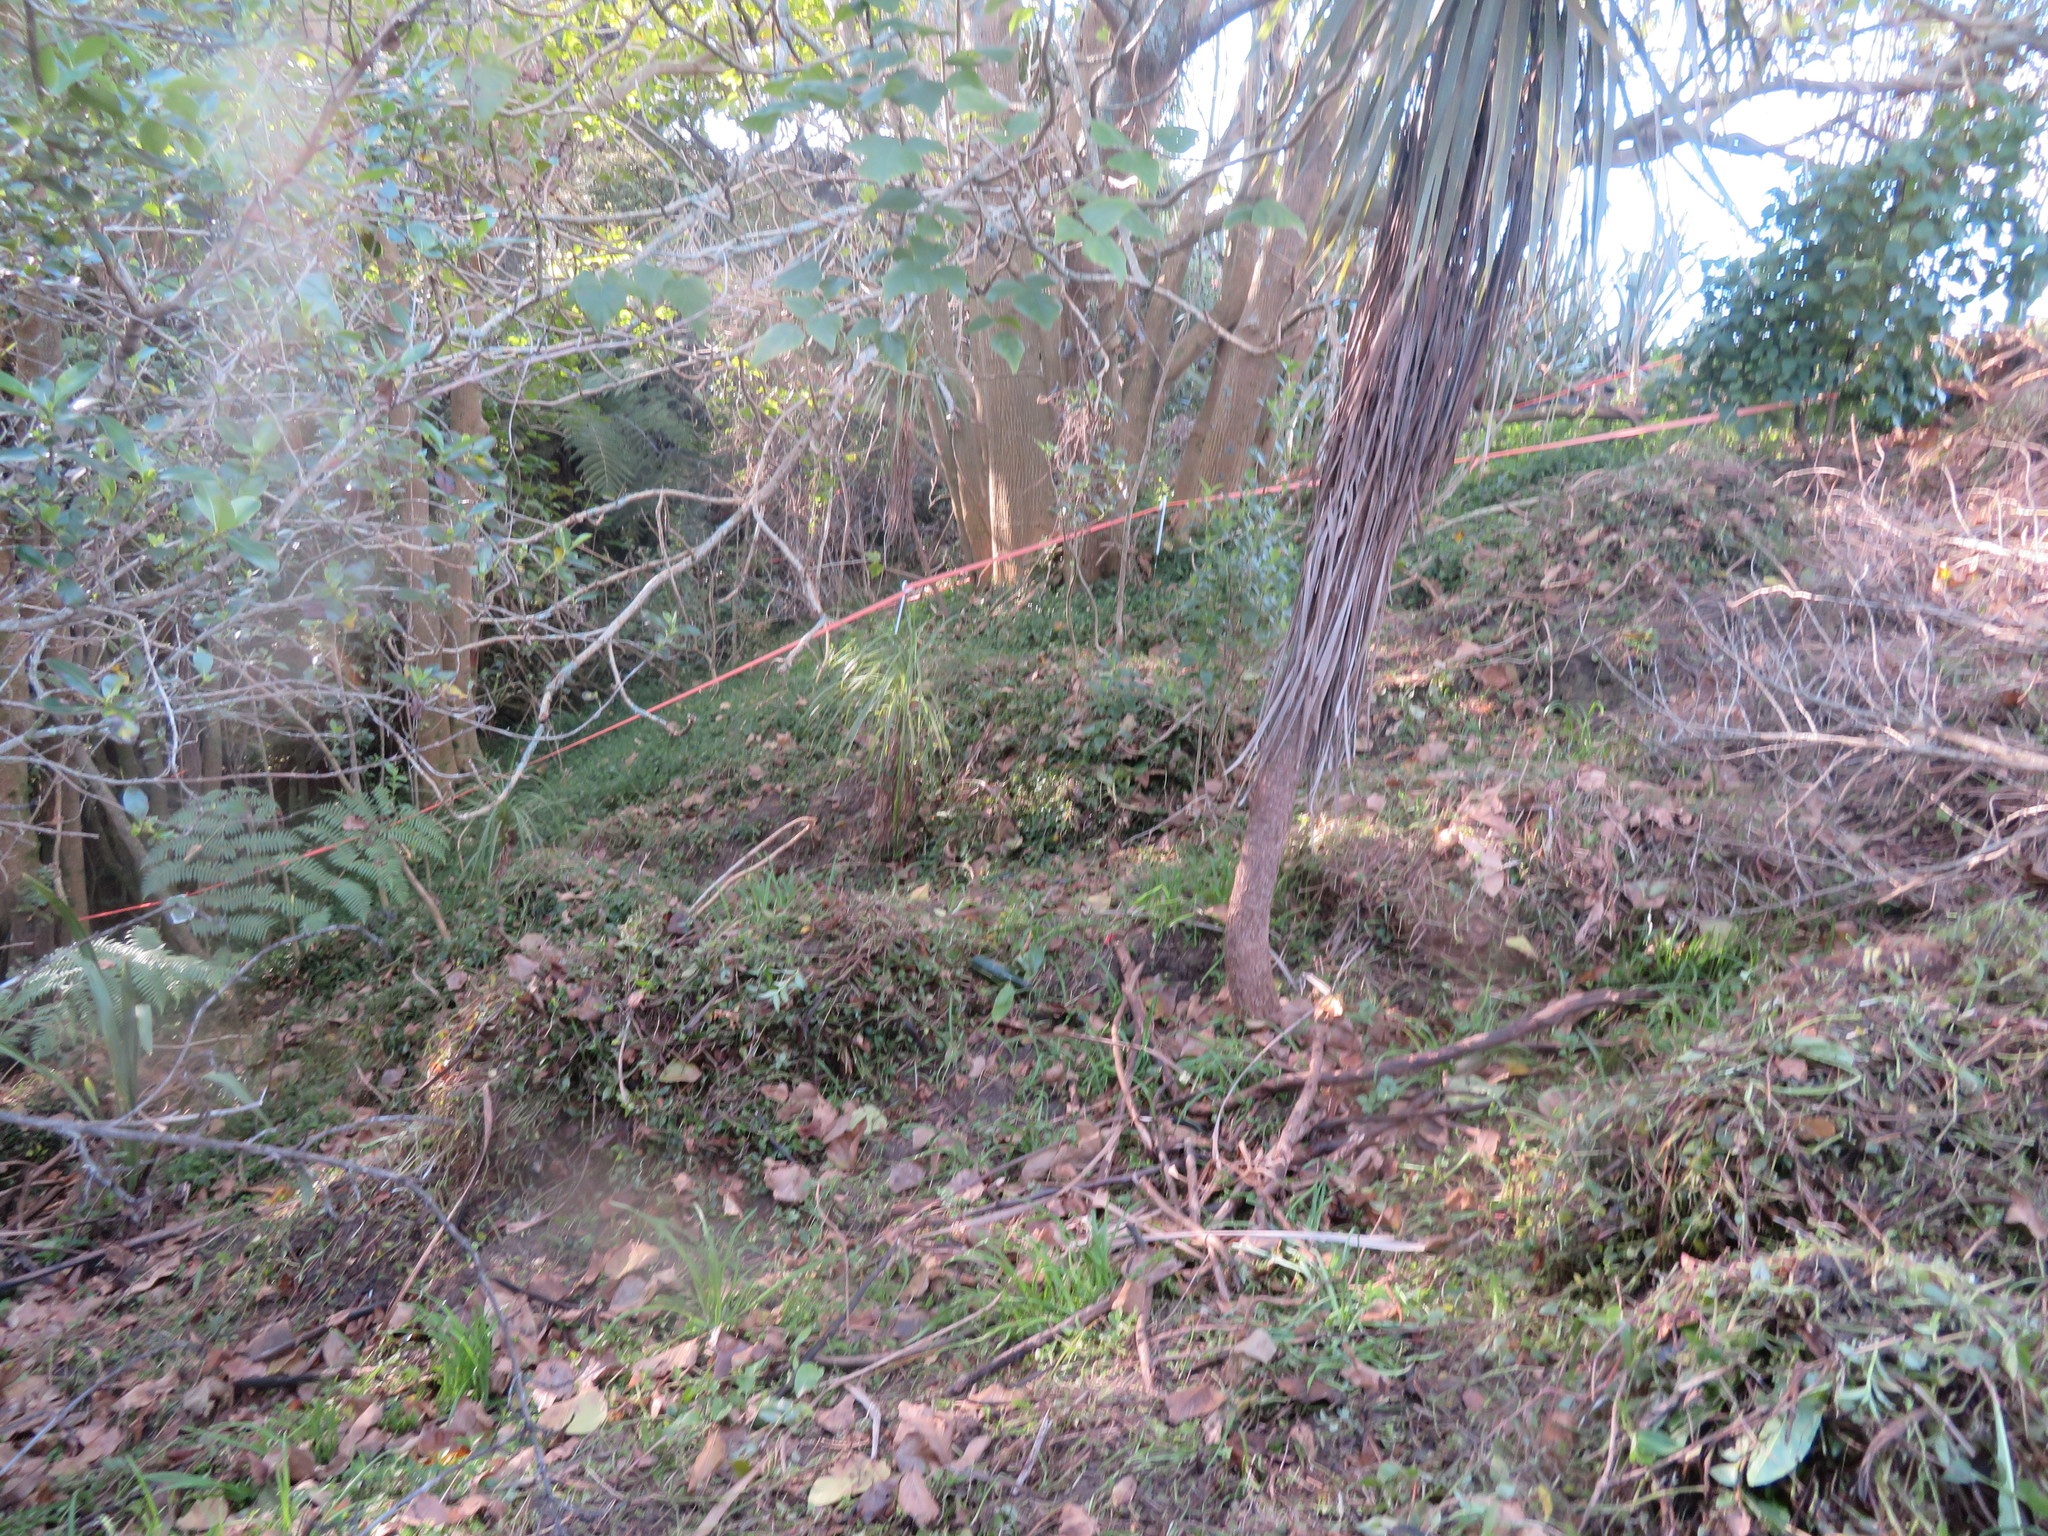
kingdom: Plantae
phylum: Tracheophyta
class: Liliopsida
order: Commelinales
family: Commelinaceae
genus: Tradescantia
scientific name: Tradescantia fluminensis
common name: Wandering-jew
